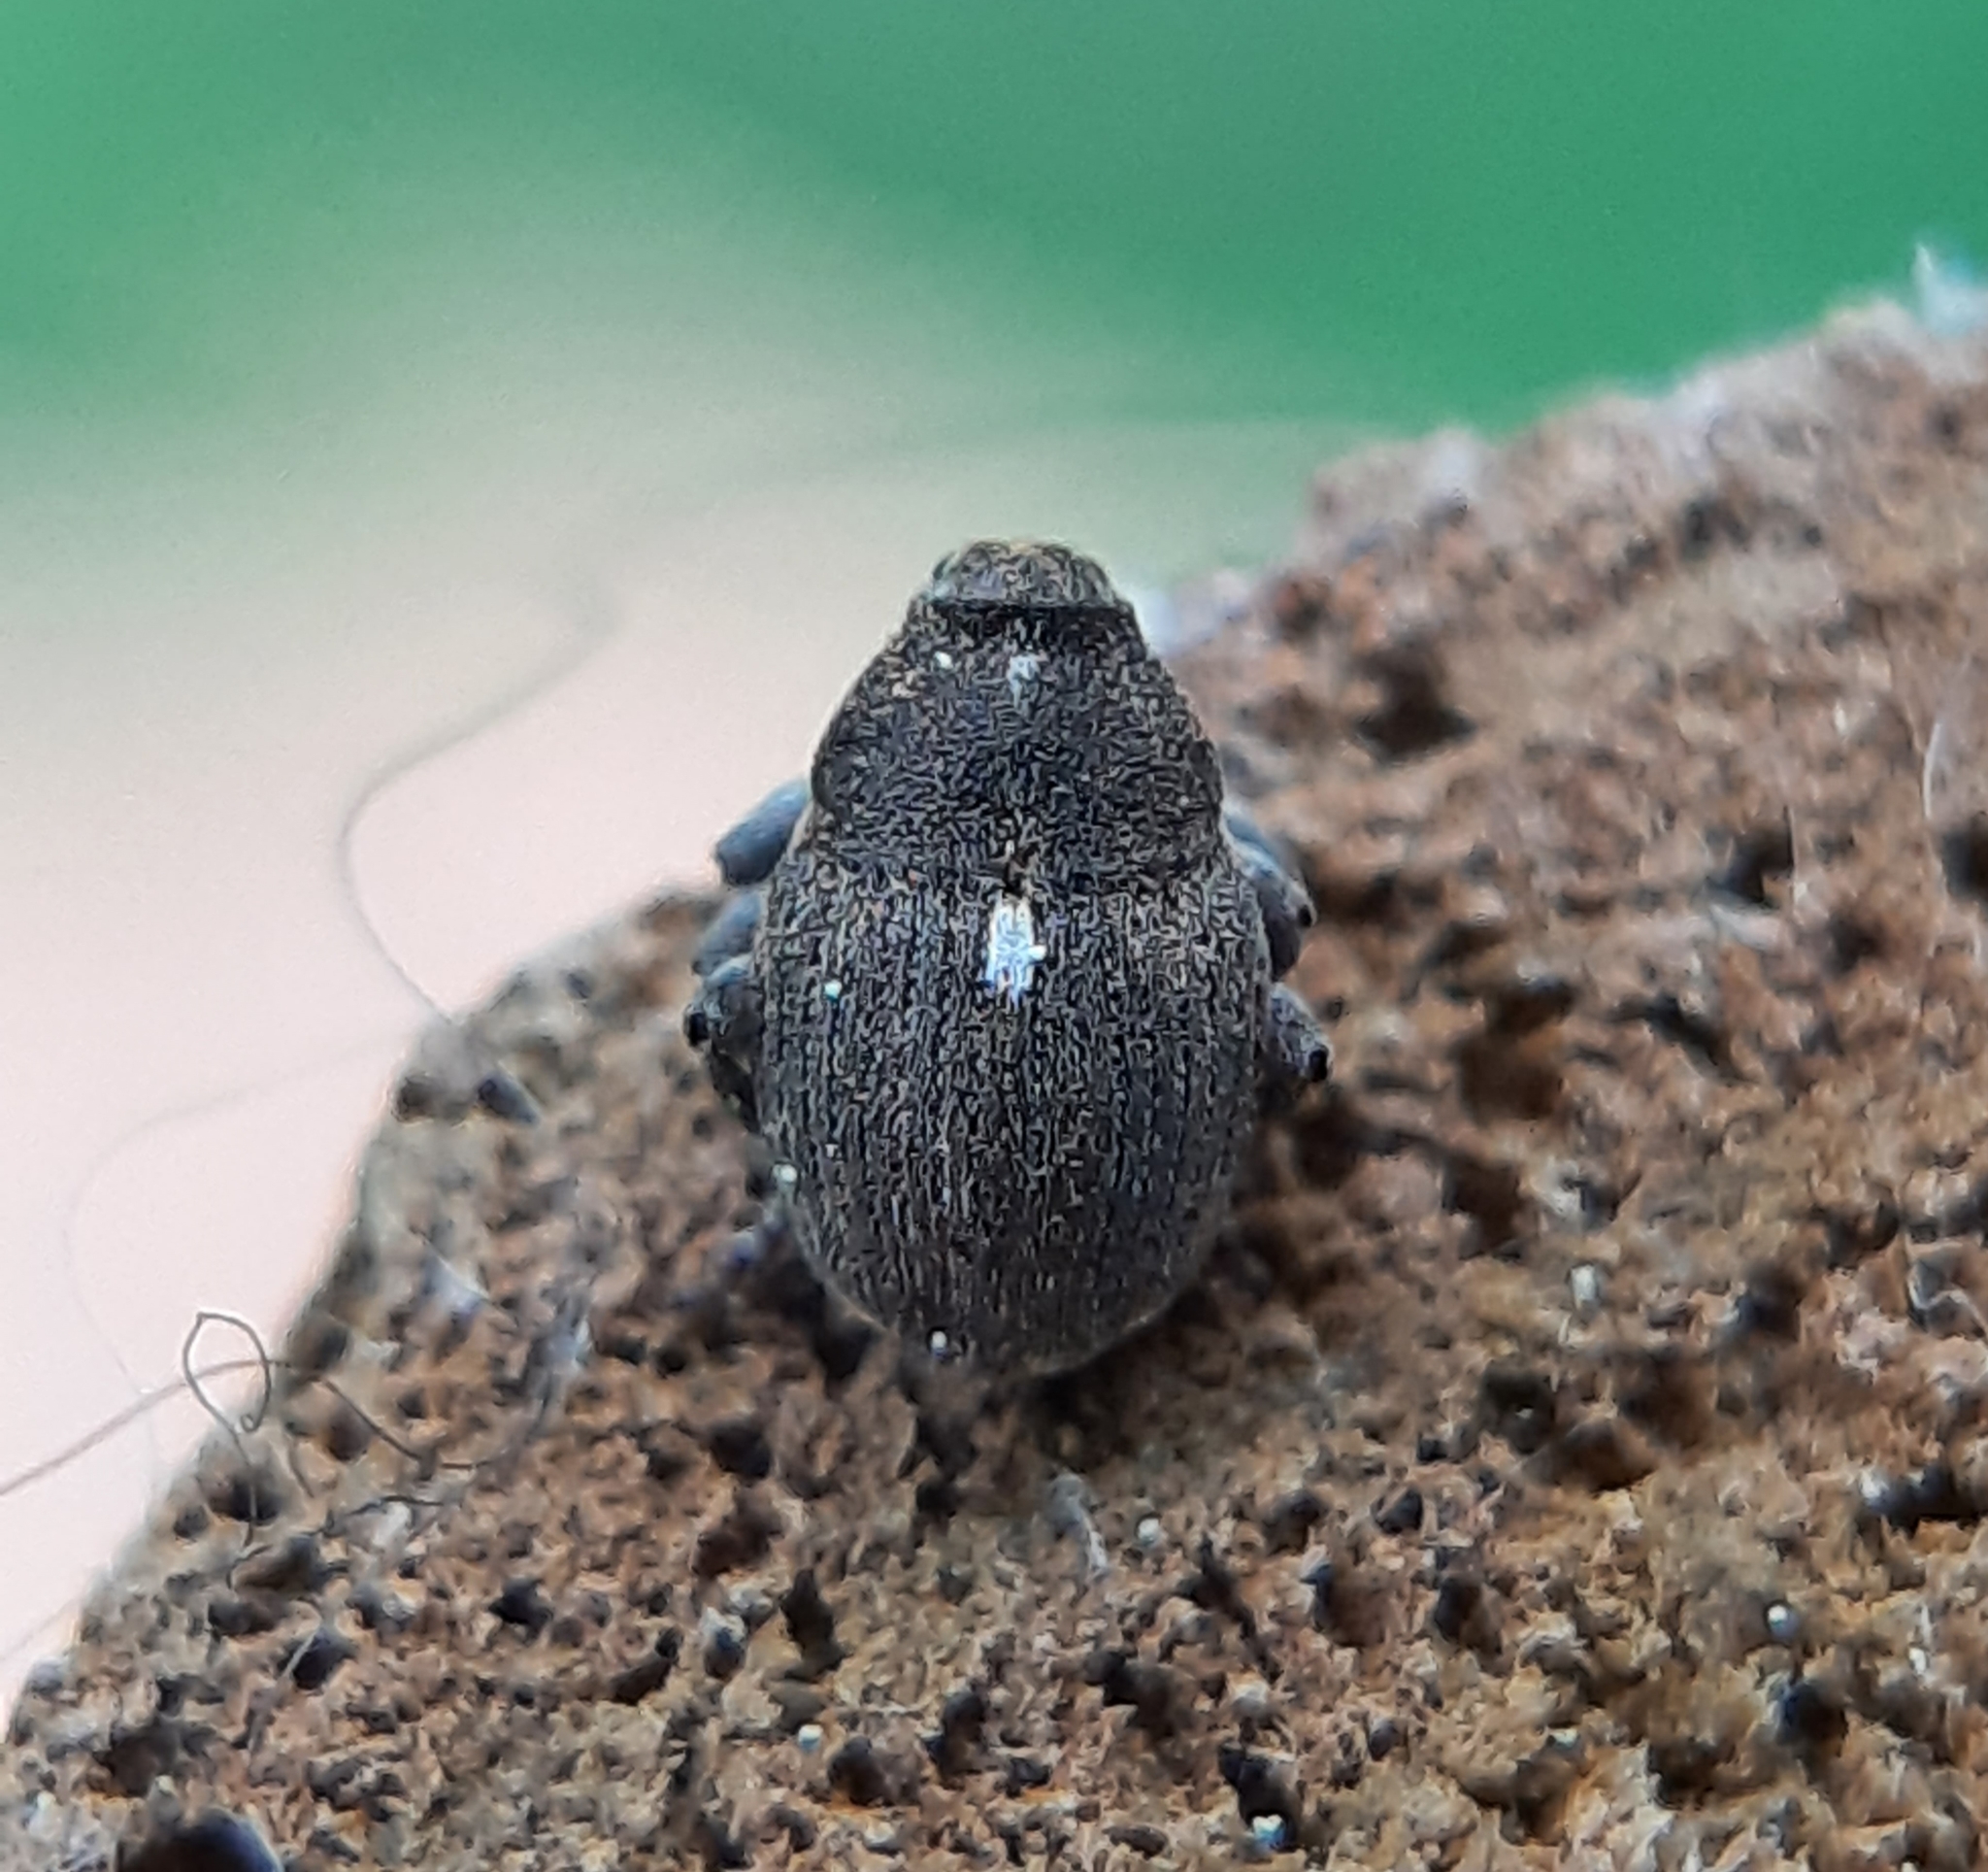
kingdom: Animalia
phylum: Arthropoda
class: Insecta
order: Coleoptera
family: Curculionidae
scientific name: Curculionidae
